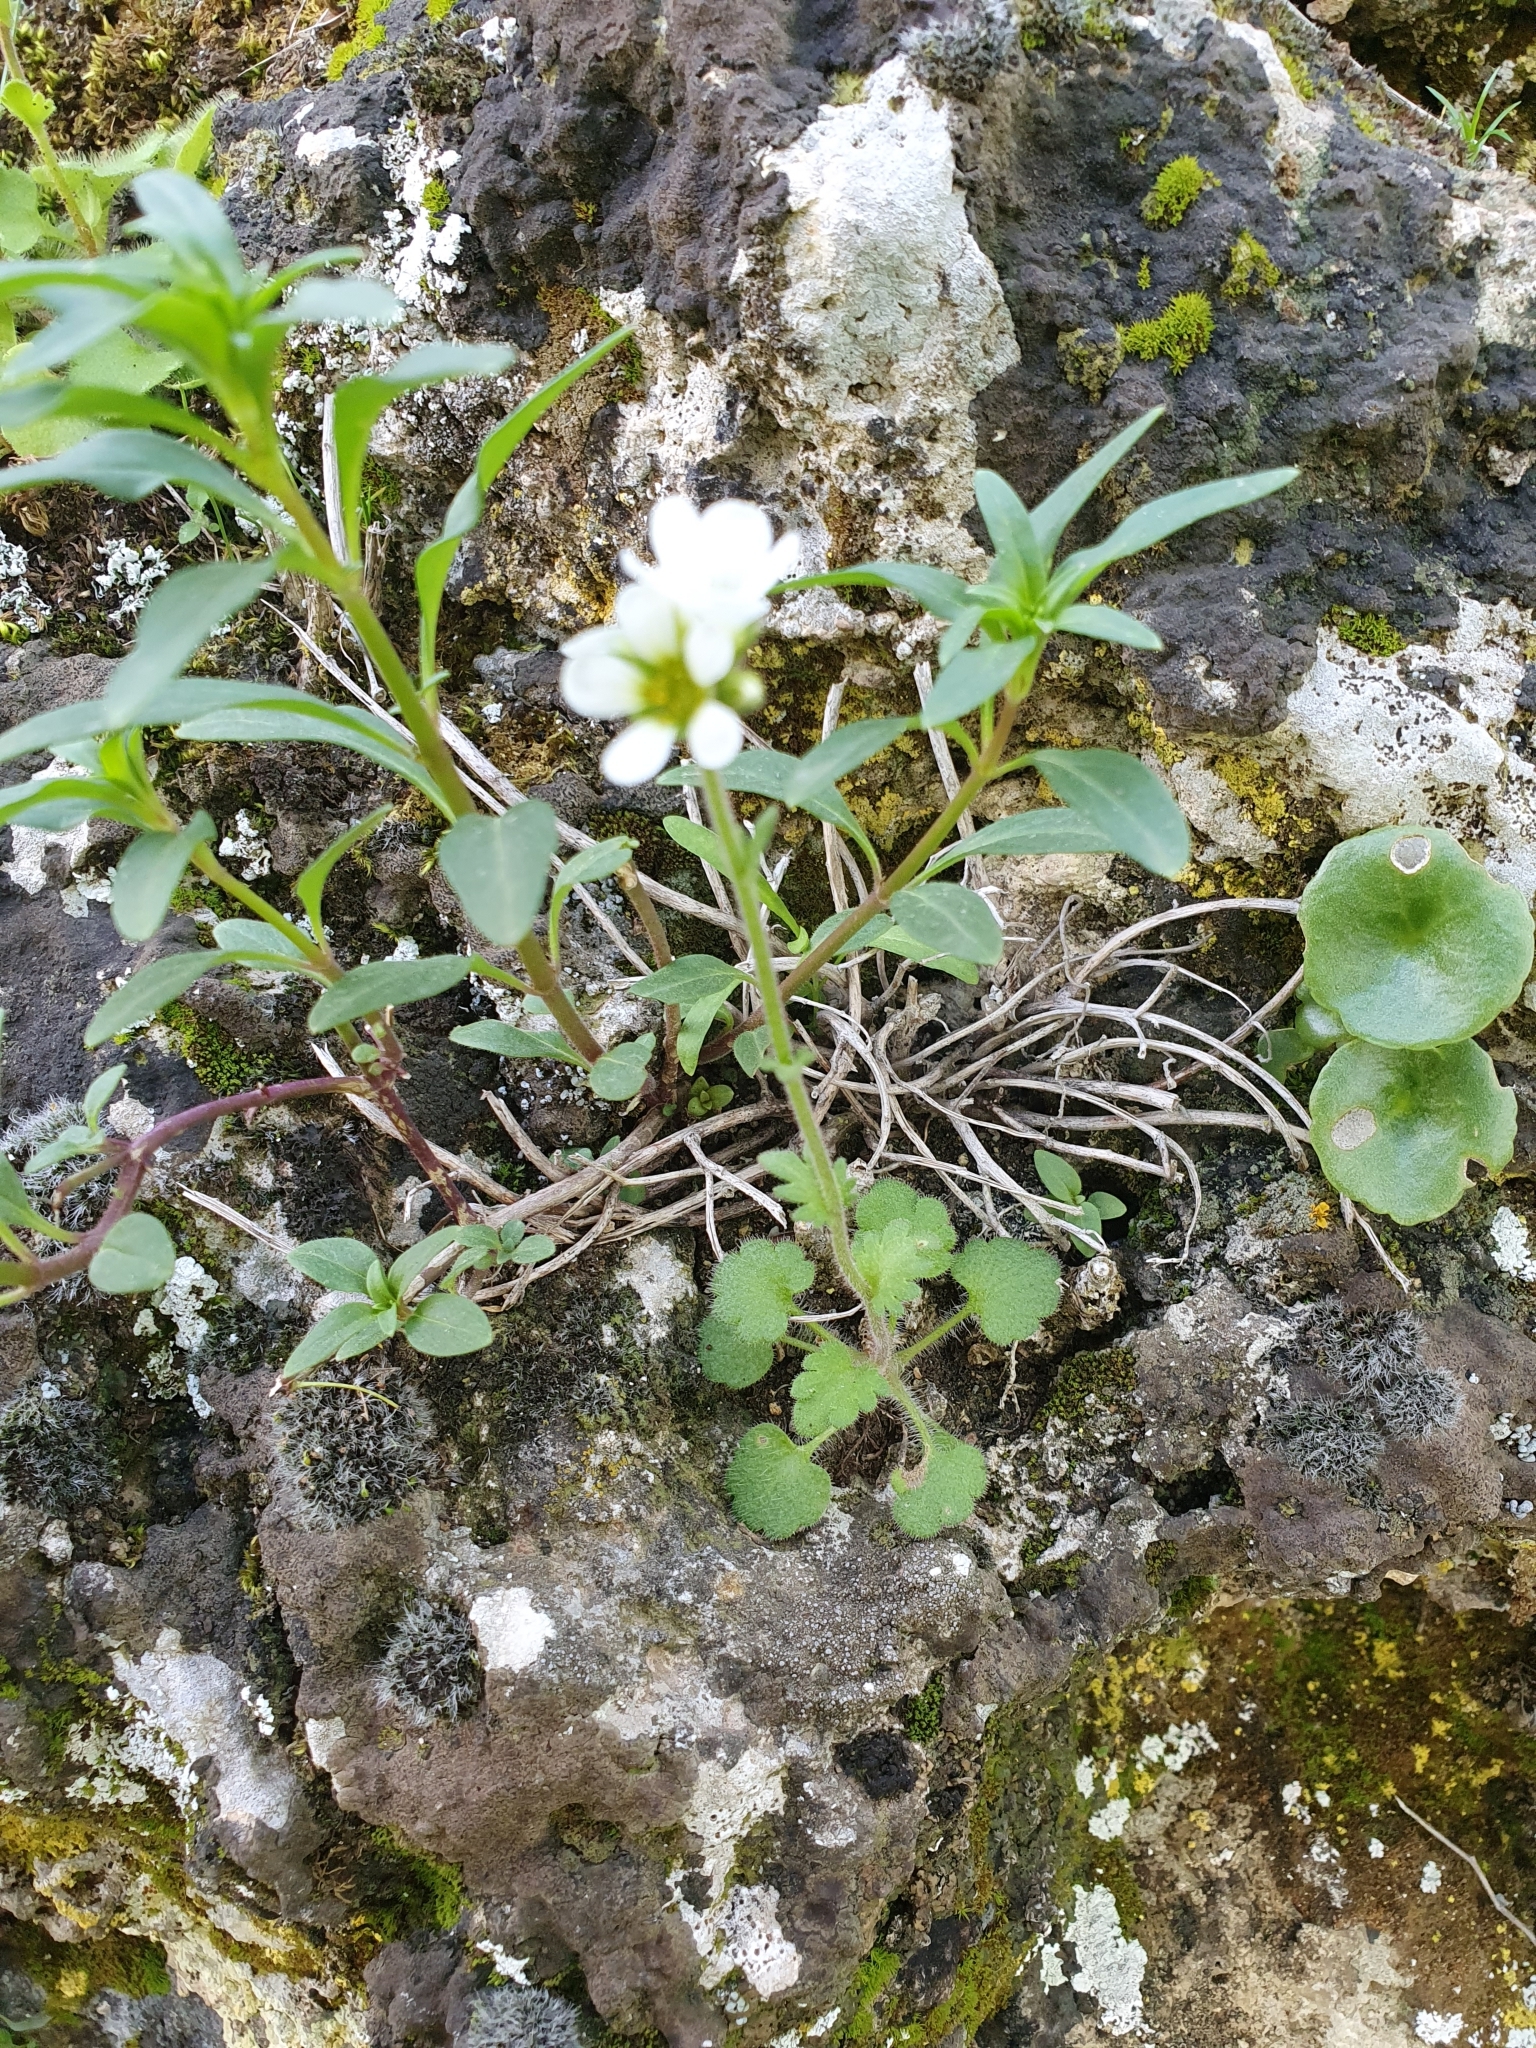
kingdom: Plantae
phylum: Tracheophyta
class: Magnoliopsida
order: Saxifragales
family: Saxifragaceae
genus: Saxifraga
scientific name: Saxifraga carpetana
